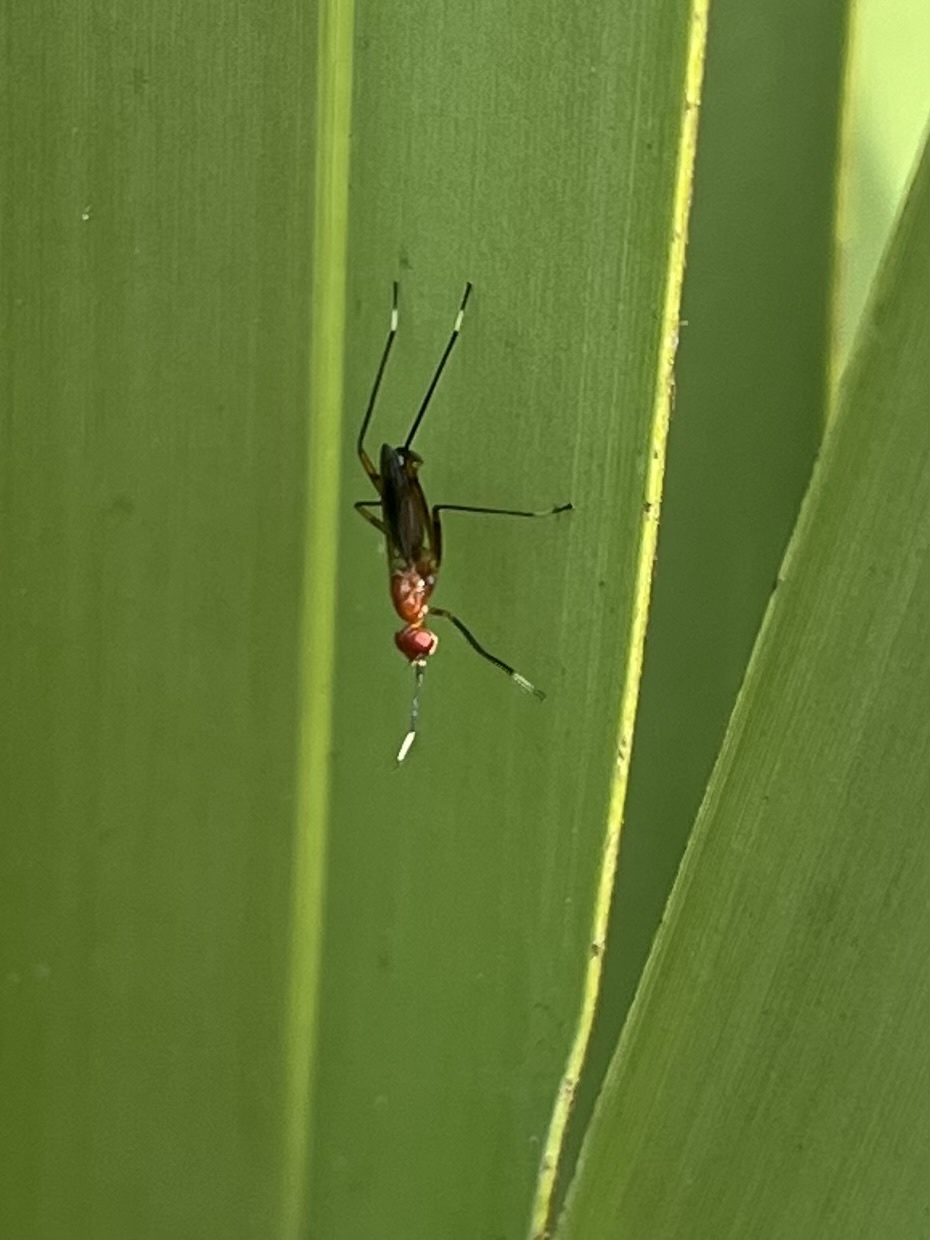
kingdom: Animalia
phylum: Arthropoda
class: Insecta
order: Diptera
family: Micropezidae
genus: Grallipeza
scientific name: Grallipeza nebulosa
